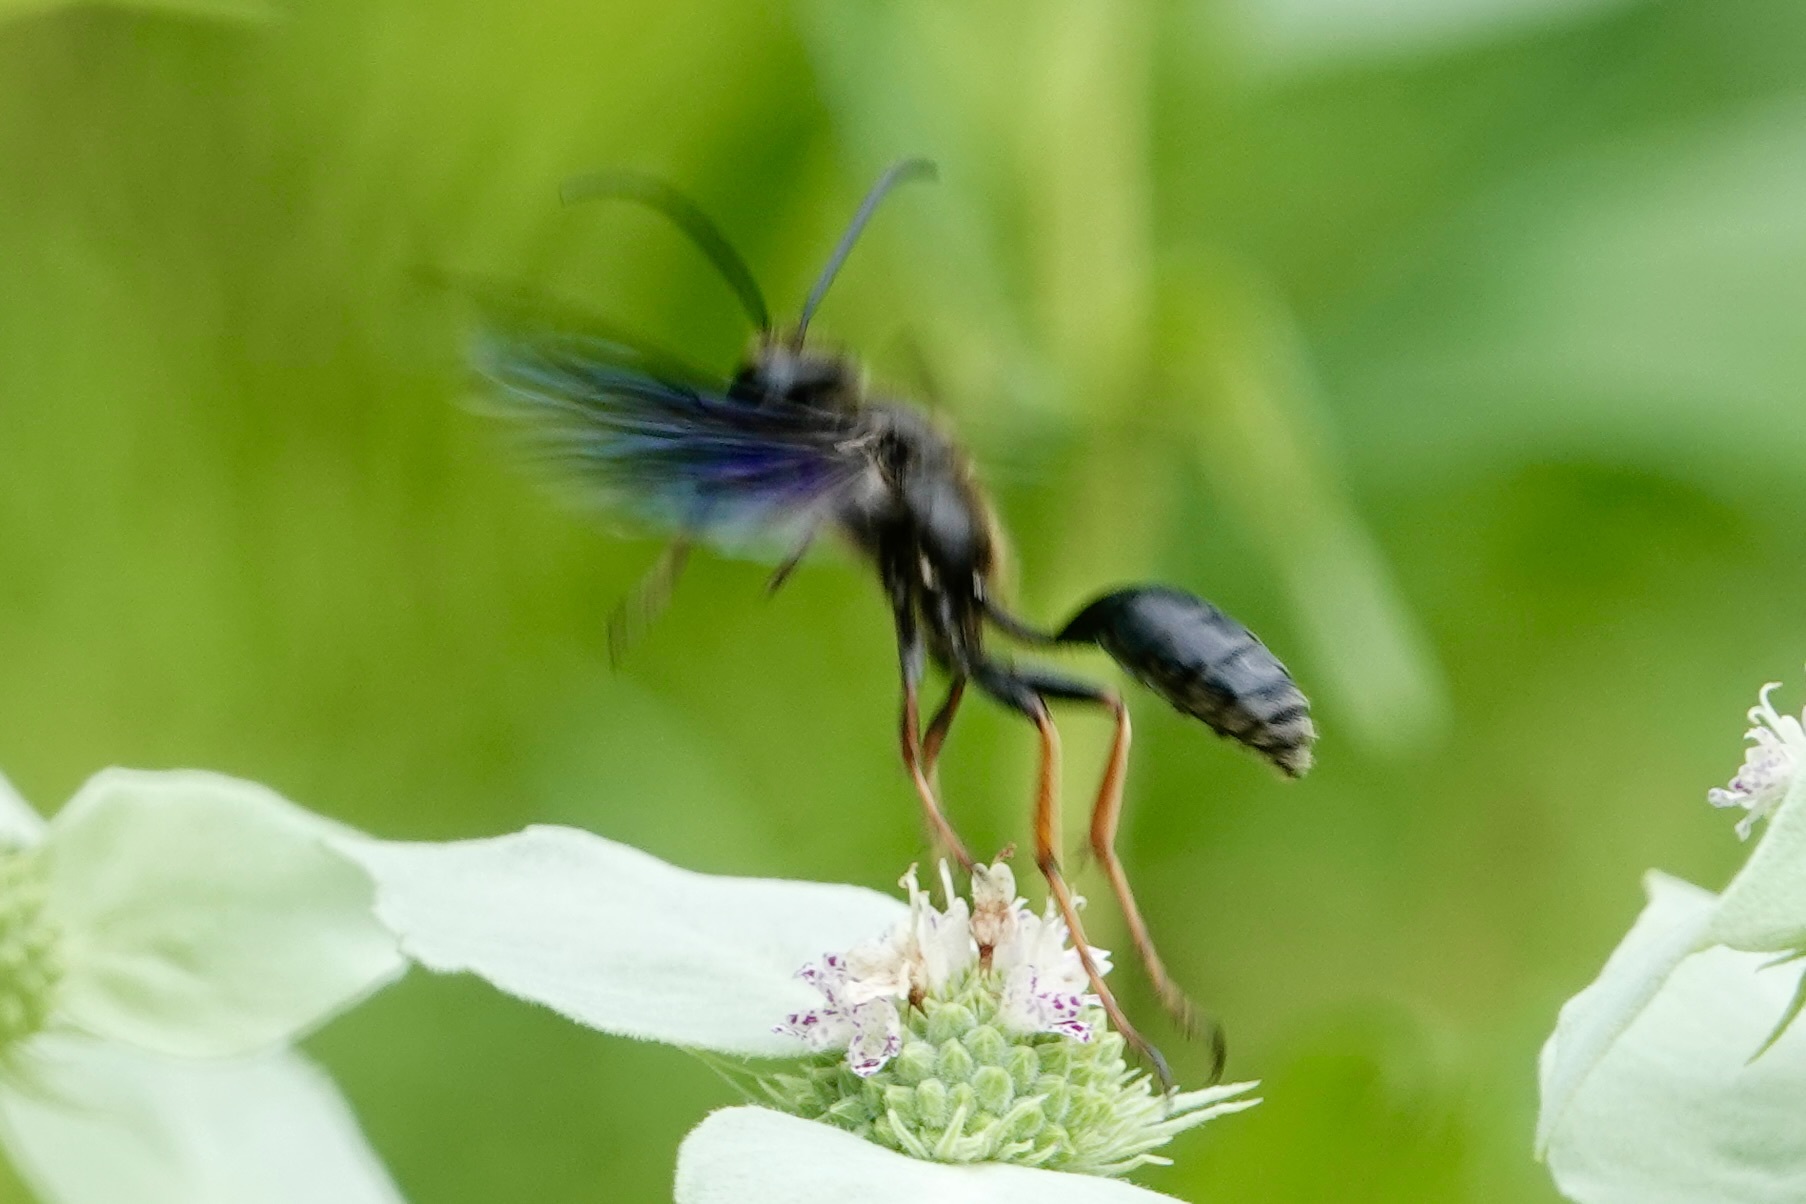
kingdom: Animalia
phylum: Arthropoda
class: Insecta
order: Hymenoptera
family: Sphecidae
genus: Isodontia
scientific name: Isodontia auripes
